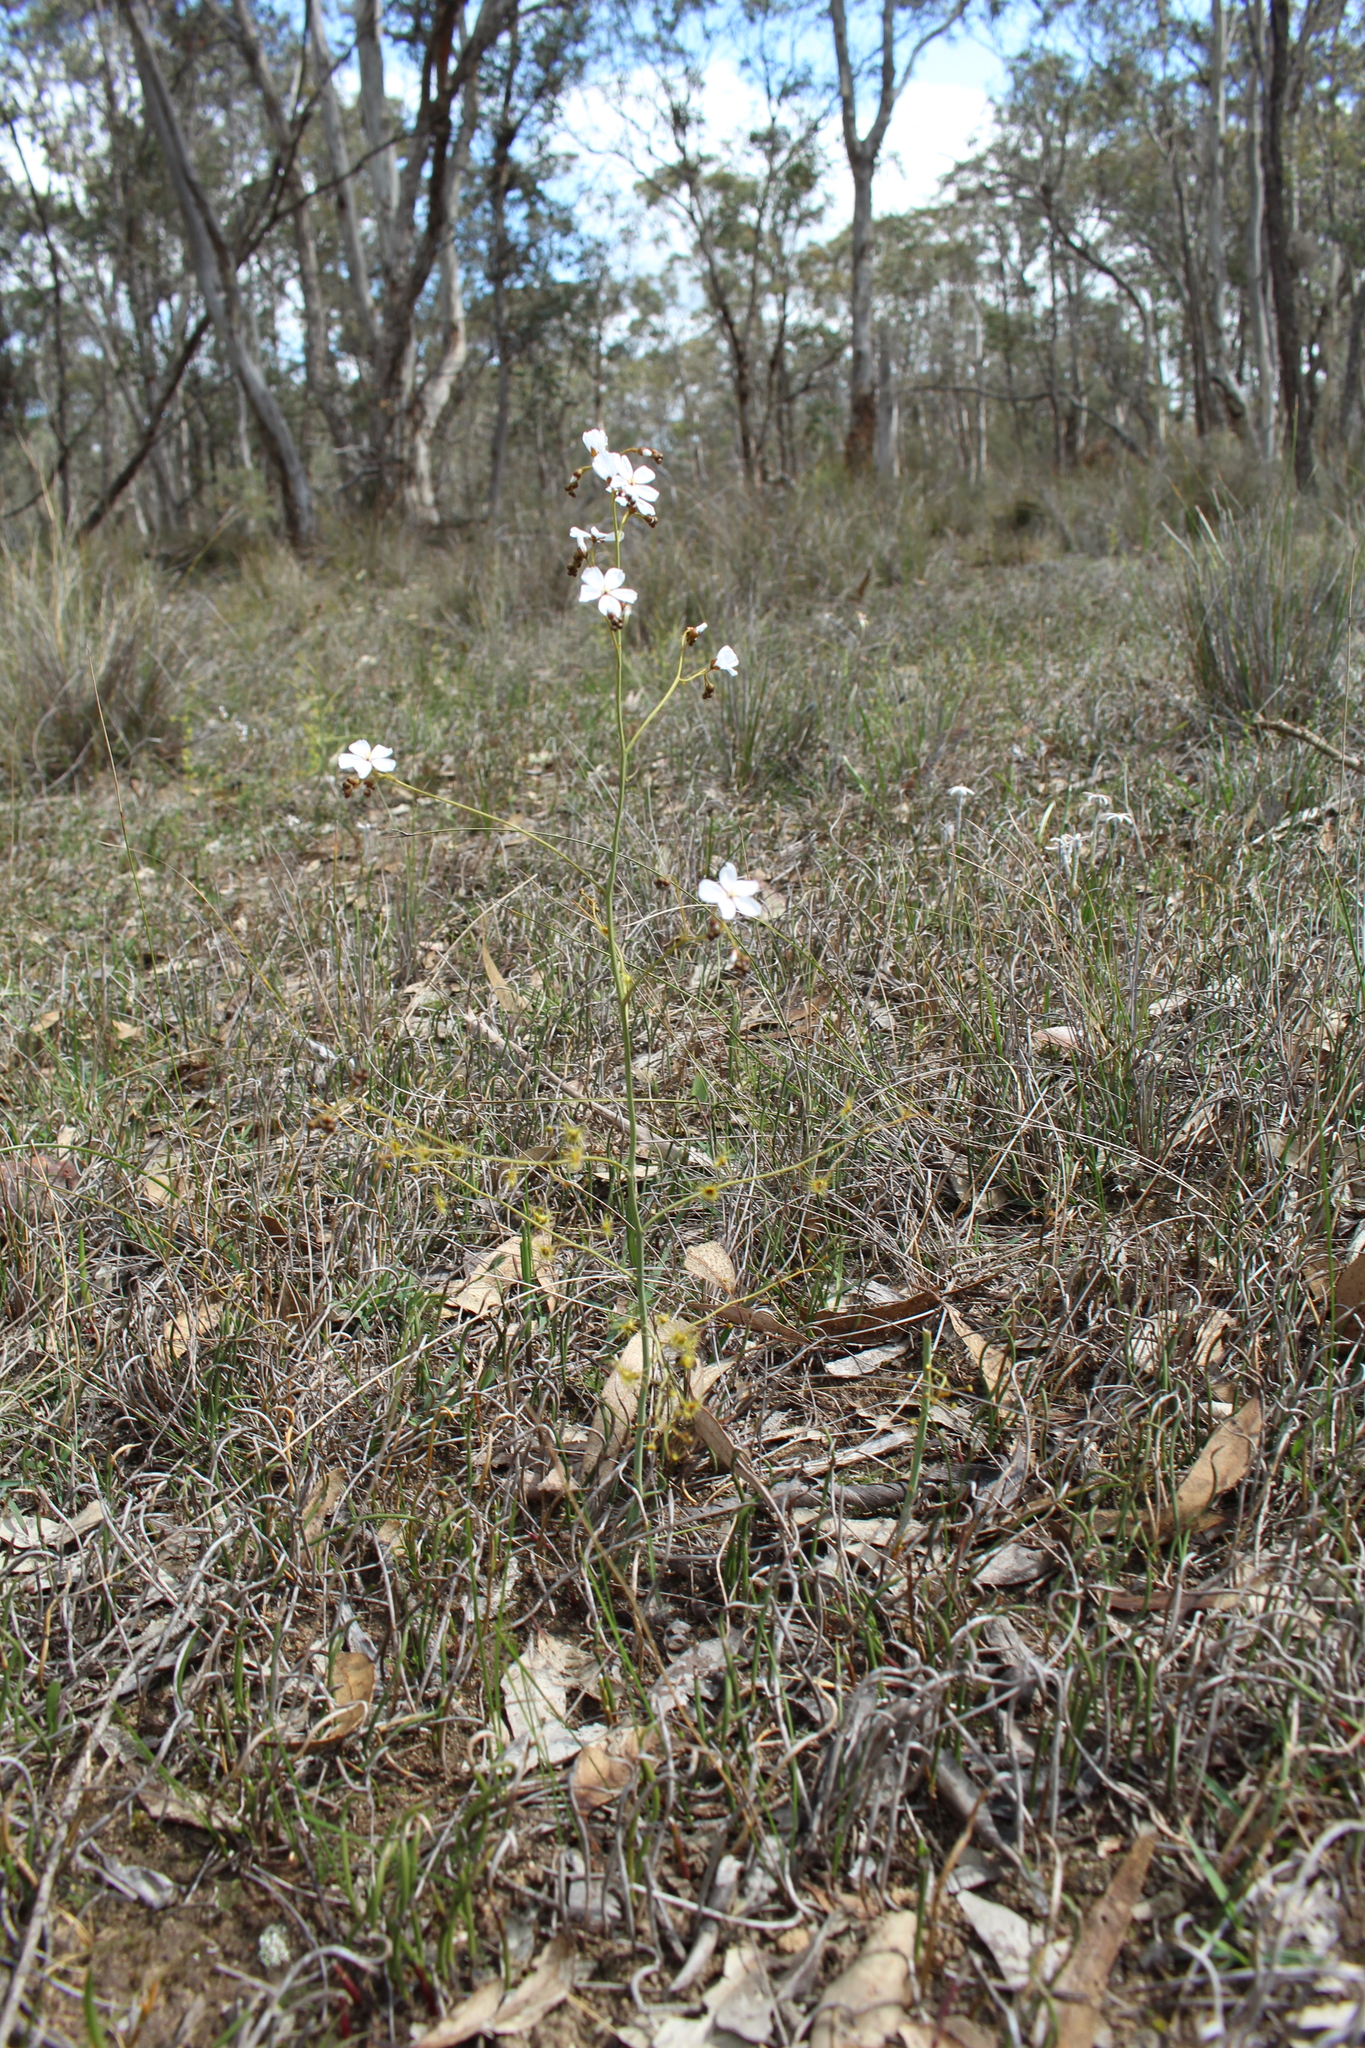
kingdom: Plantae
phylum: Tracheophyta
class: Magnoliopsida
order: Caryophyllales
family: Droseraceae
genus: Drosera
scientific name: Drosera gigantea
